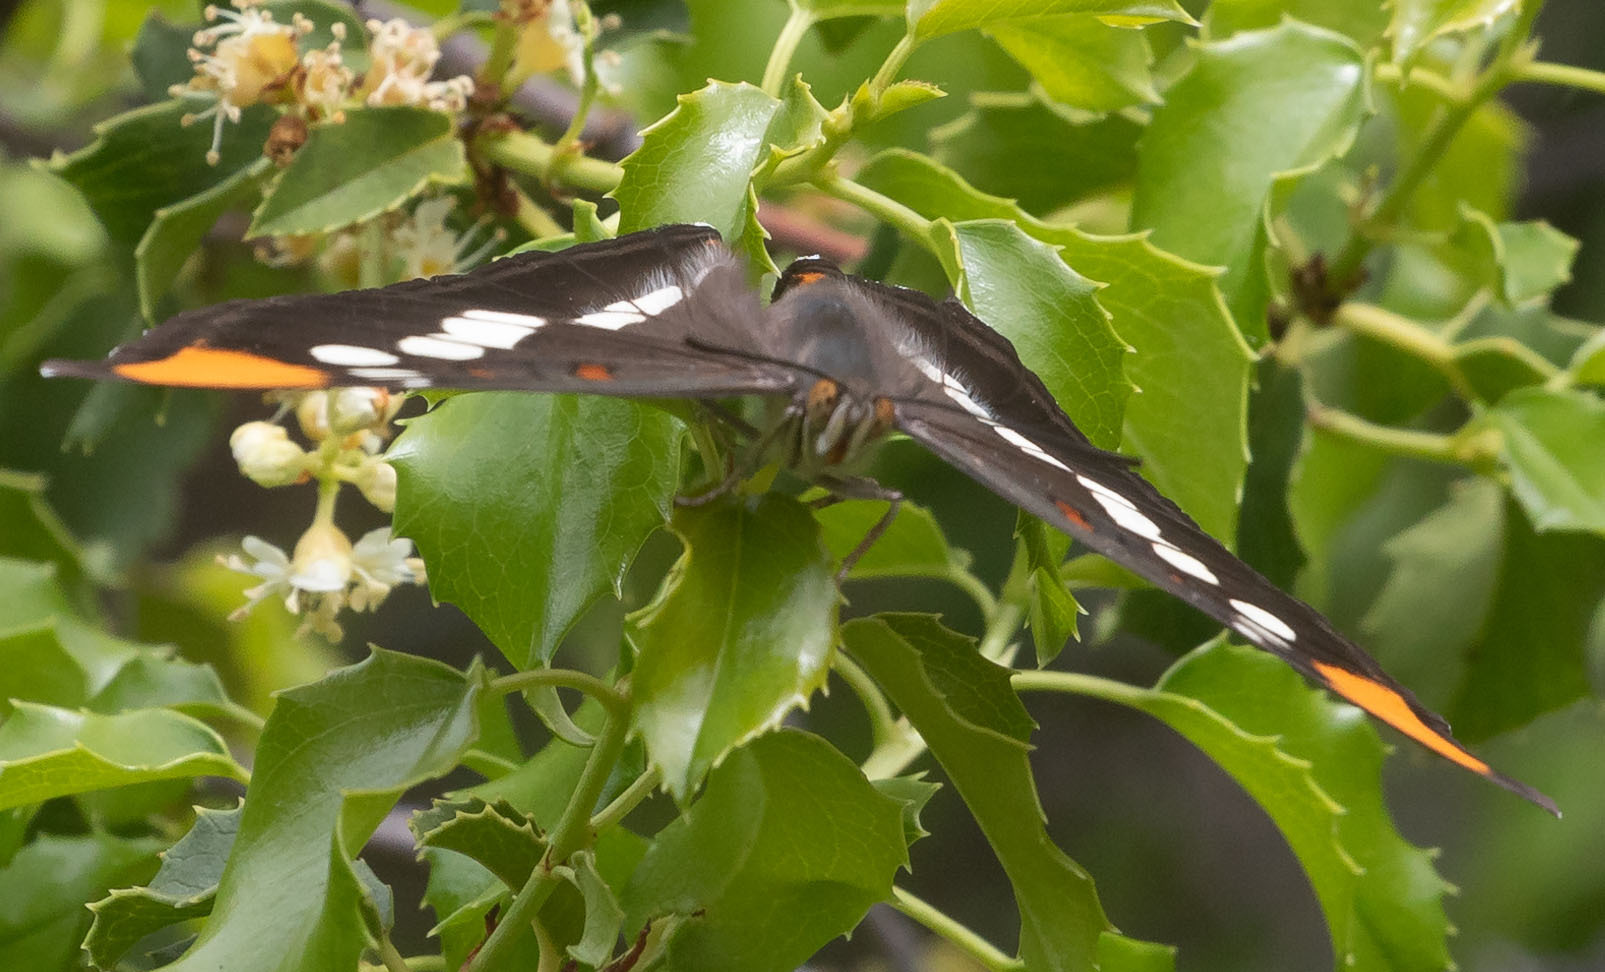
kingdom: Animalia
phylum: Arthropoda
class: Insecta
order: Lepidoptera
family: Nymphalidae
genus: Limenitis
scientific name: Limenitis bredowii
